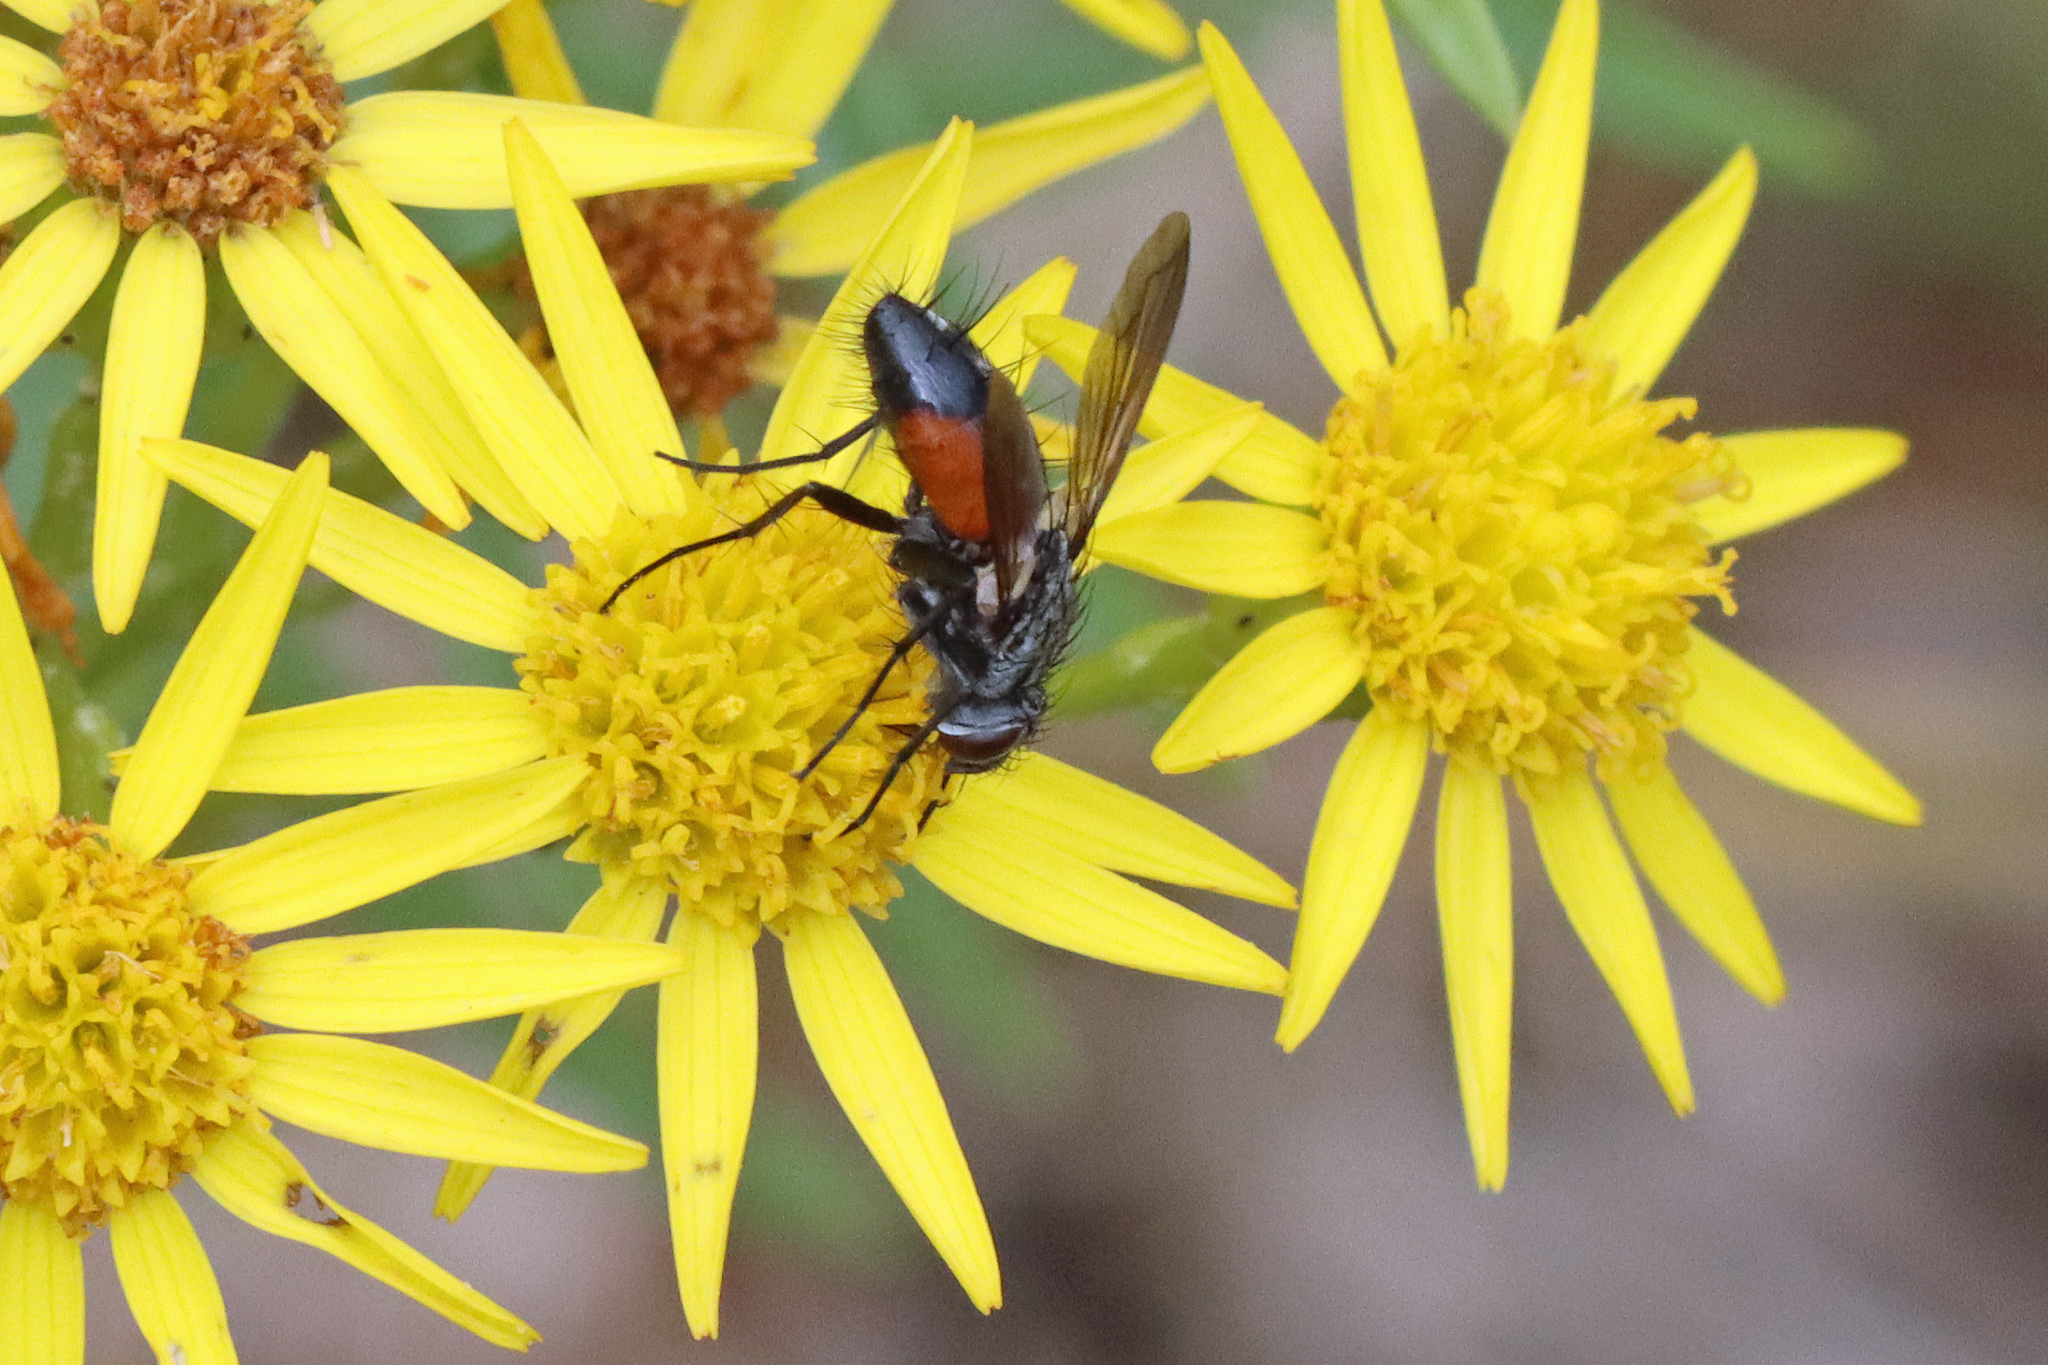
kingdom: Animalia
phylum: Arthropoda
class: Insecta
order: Diptera
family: Tachinidae
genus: Eriothrix
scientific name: Eriothrix rufomaculatus
